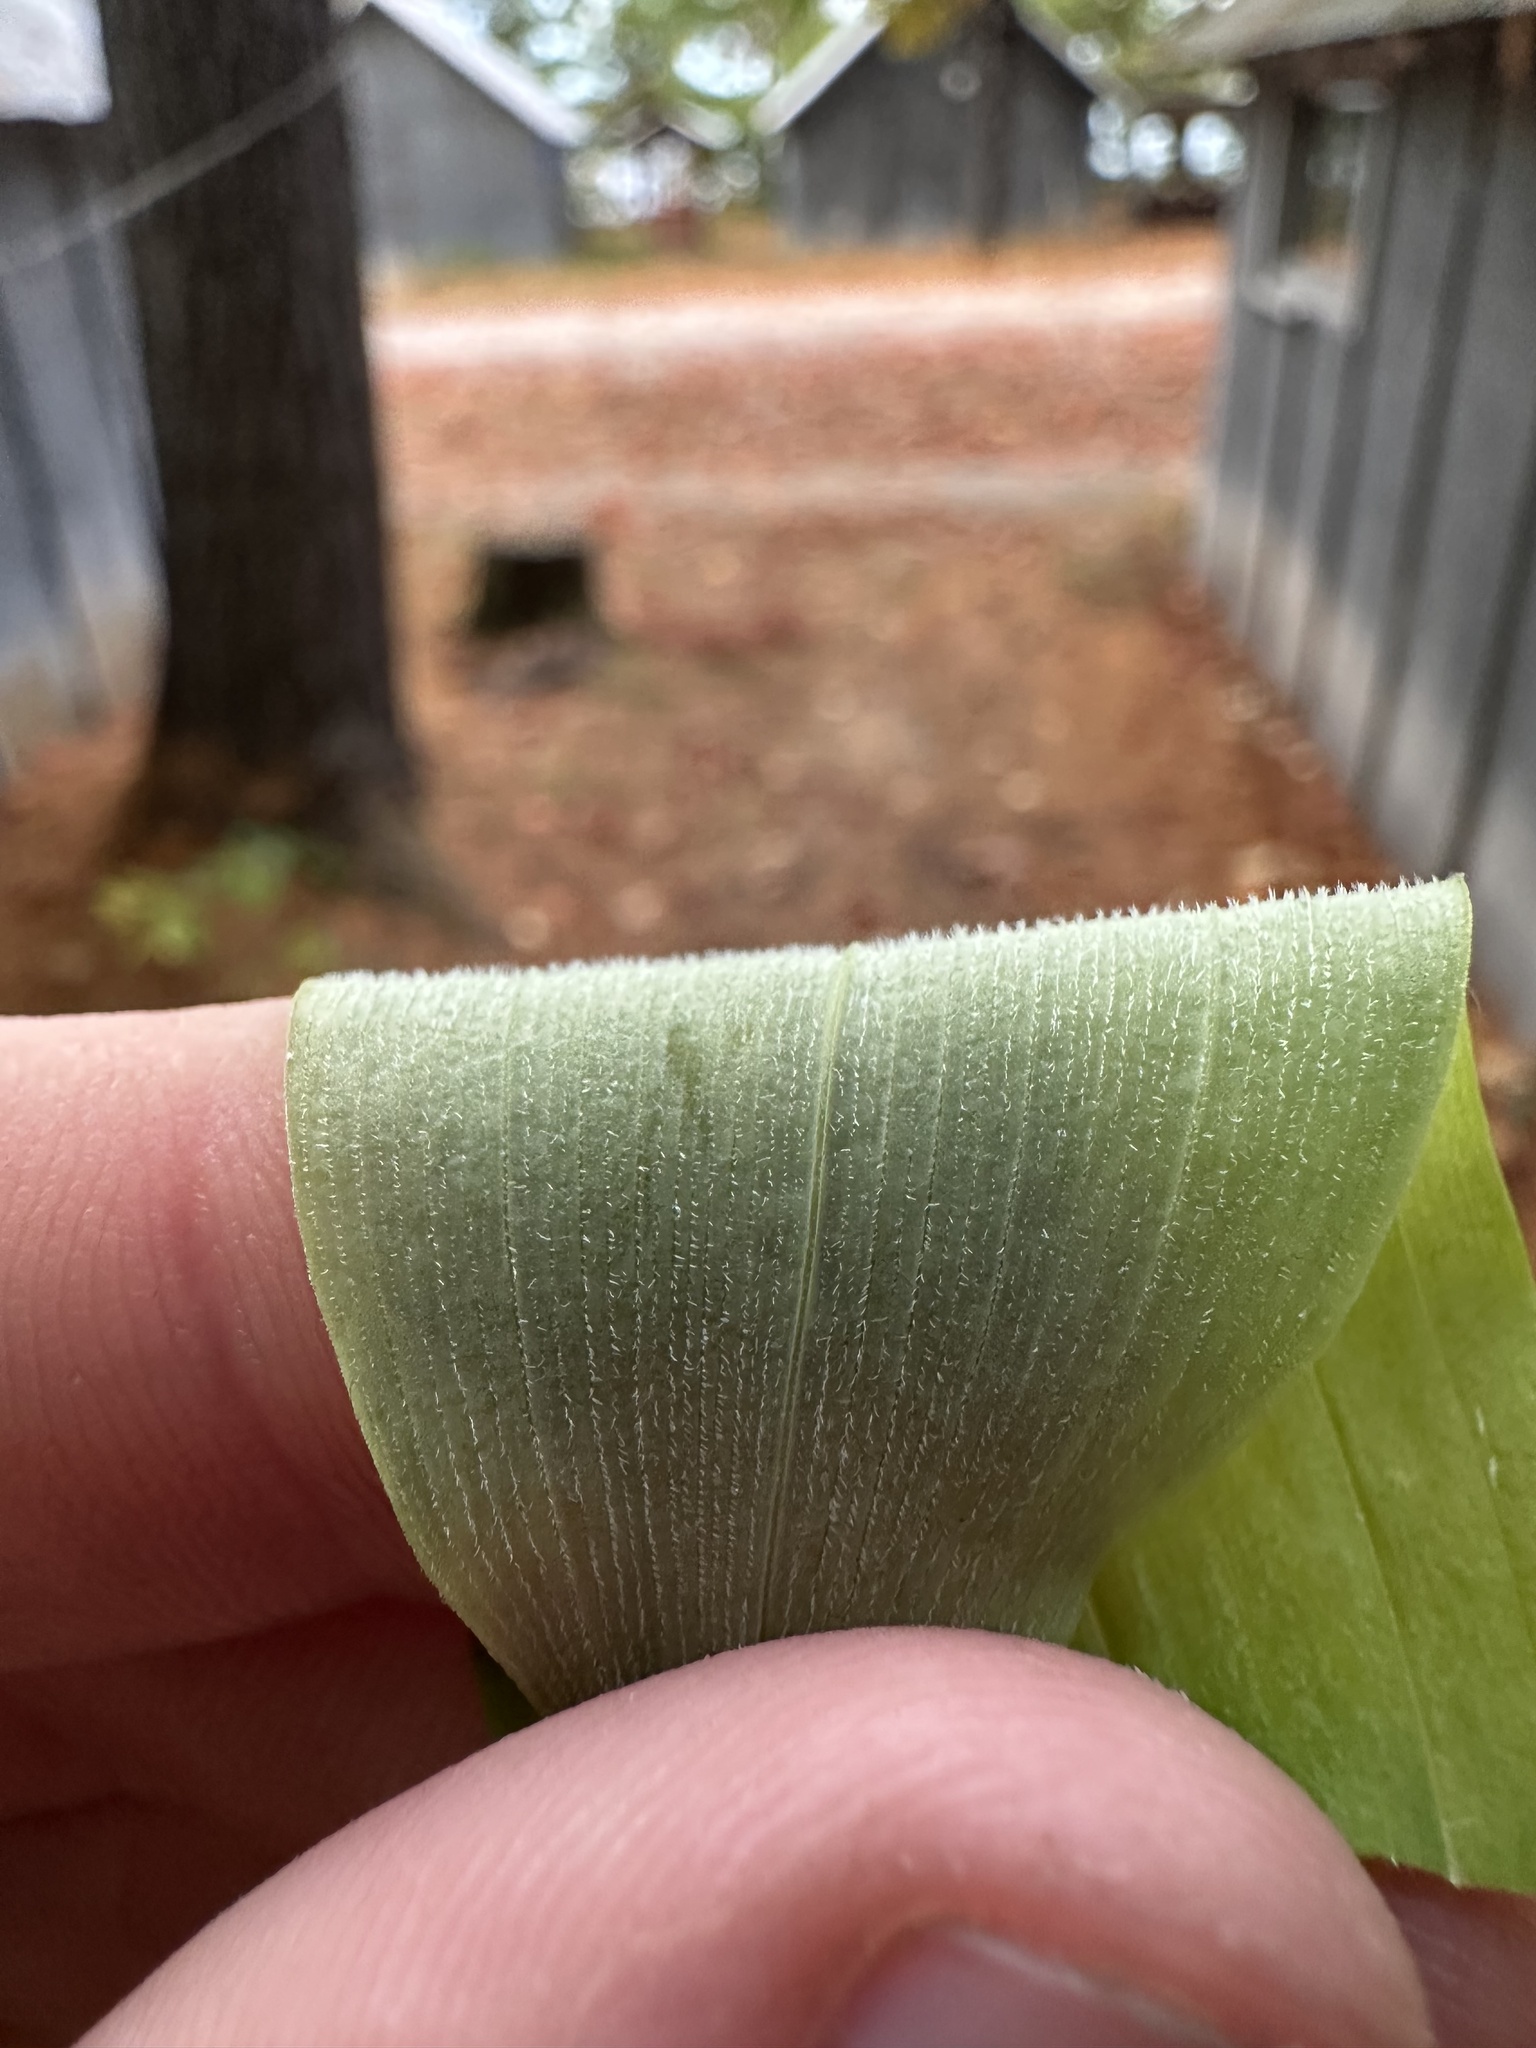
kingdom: Plantae
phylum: Tracheophyta
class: Liliopsida
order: Asparagales
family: Asparagaceae
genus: Polygonatum
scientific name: Polygonatum pubescens
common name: Downy solomon's seal
